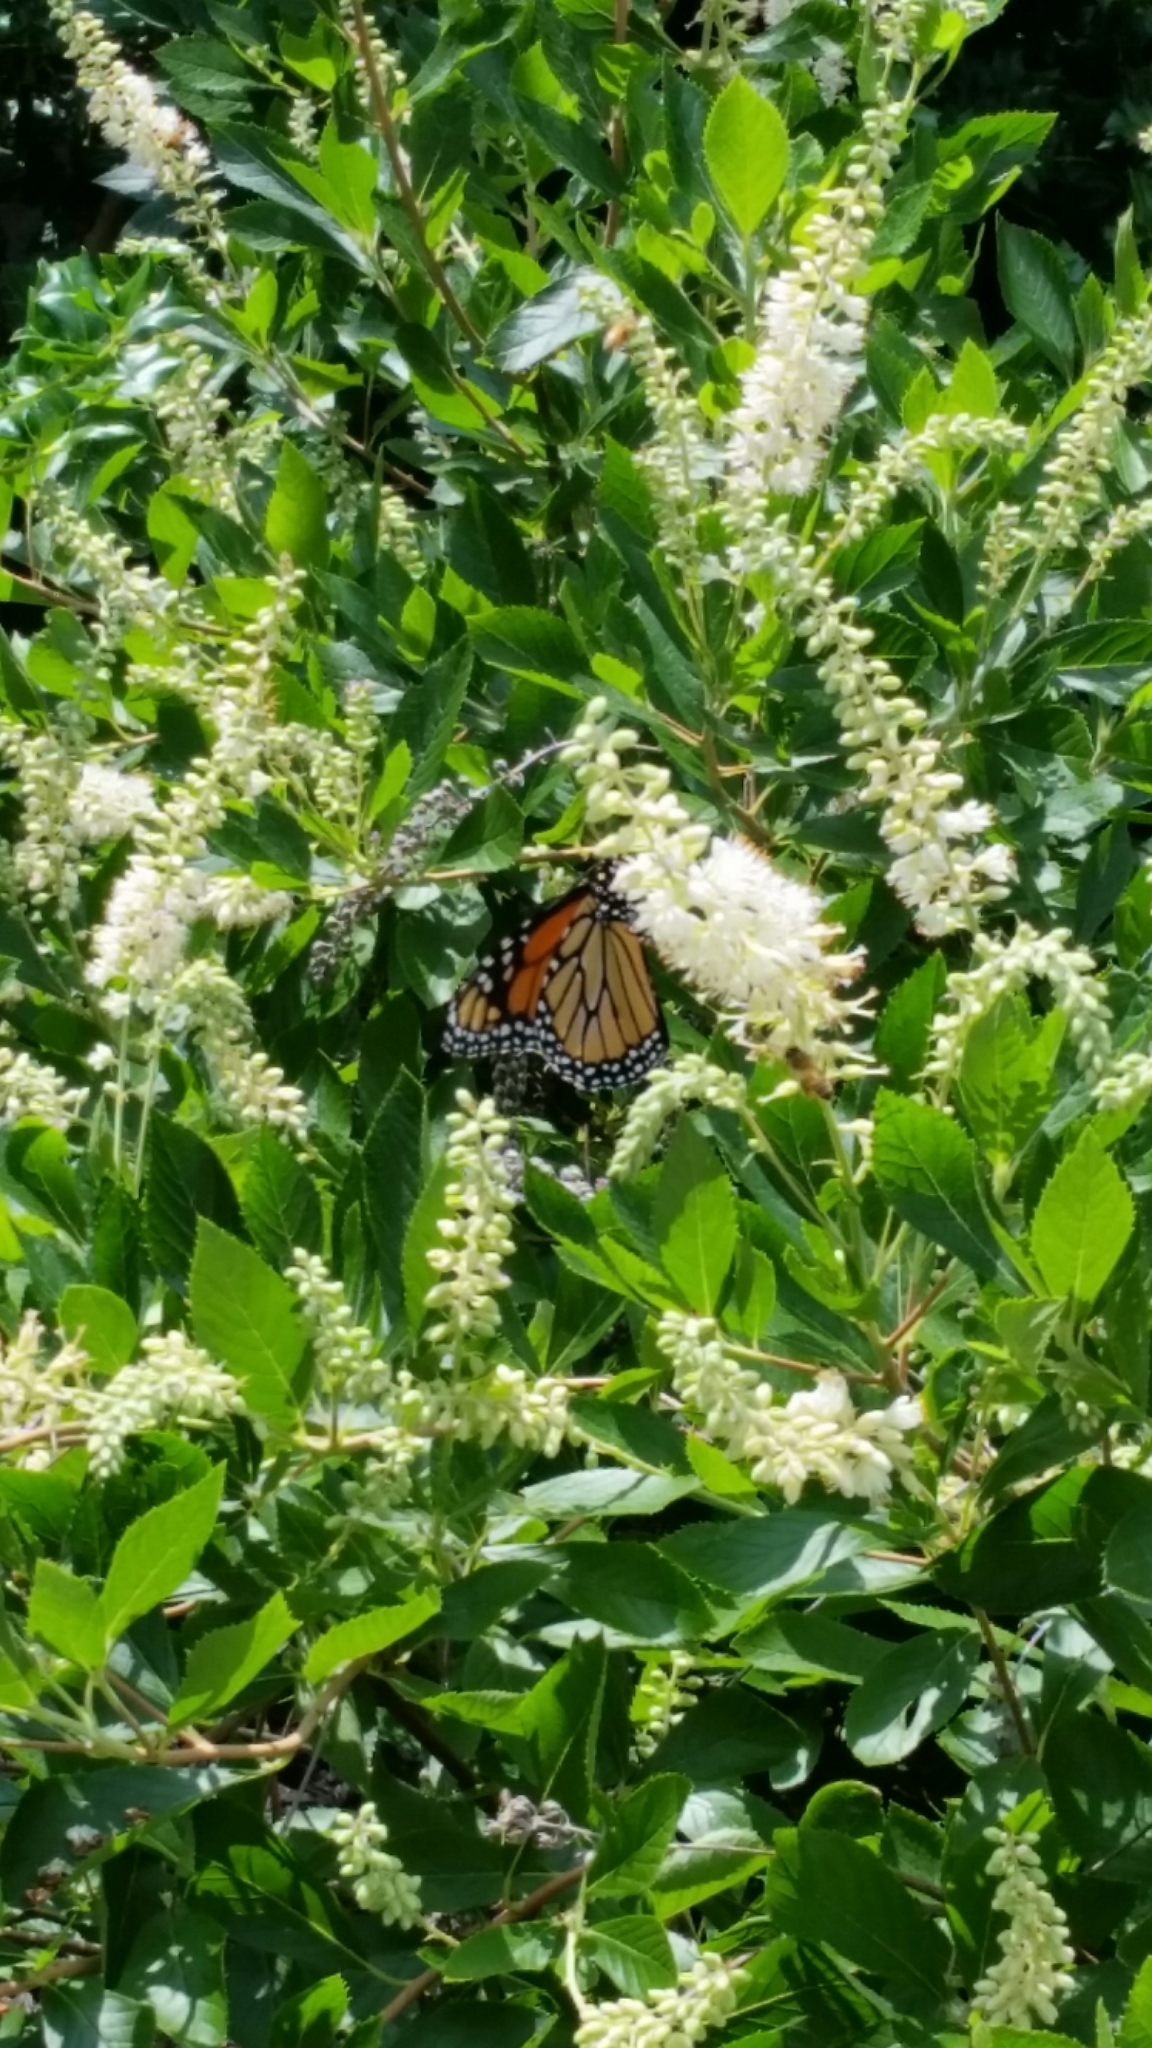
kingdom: Animalia
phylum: Arthropoda
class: Insecta
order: Lepidoptera
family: Nymphalidae
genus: Danaus
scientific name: Danaus plexippus
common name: Monarch
